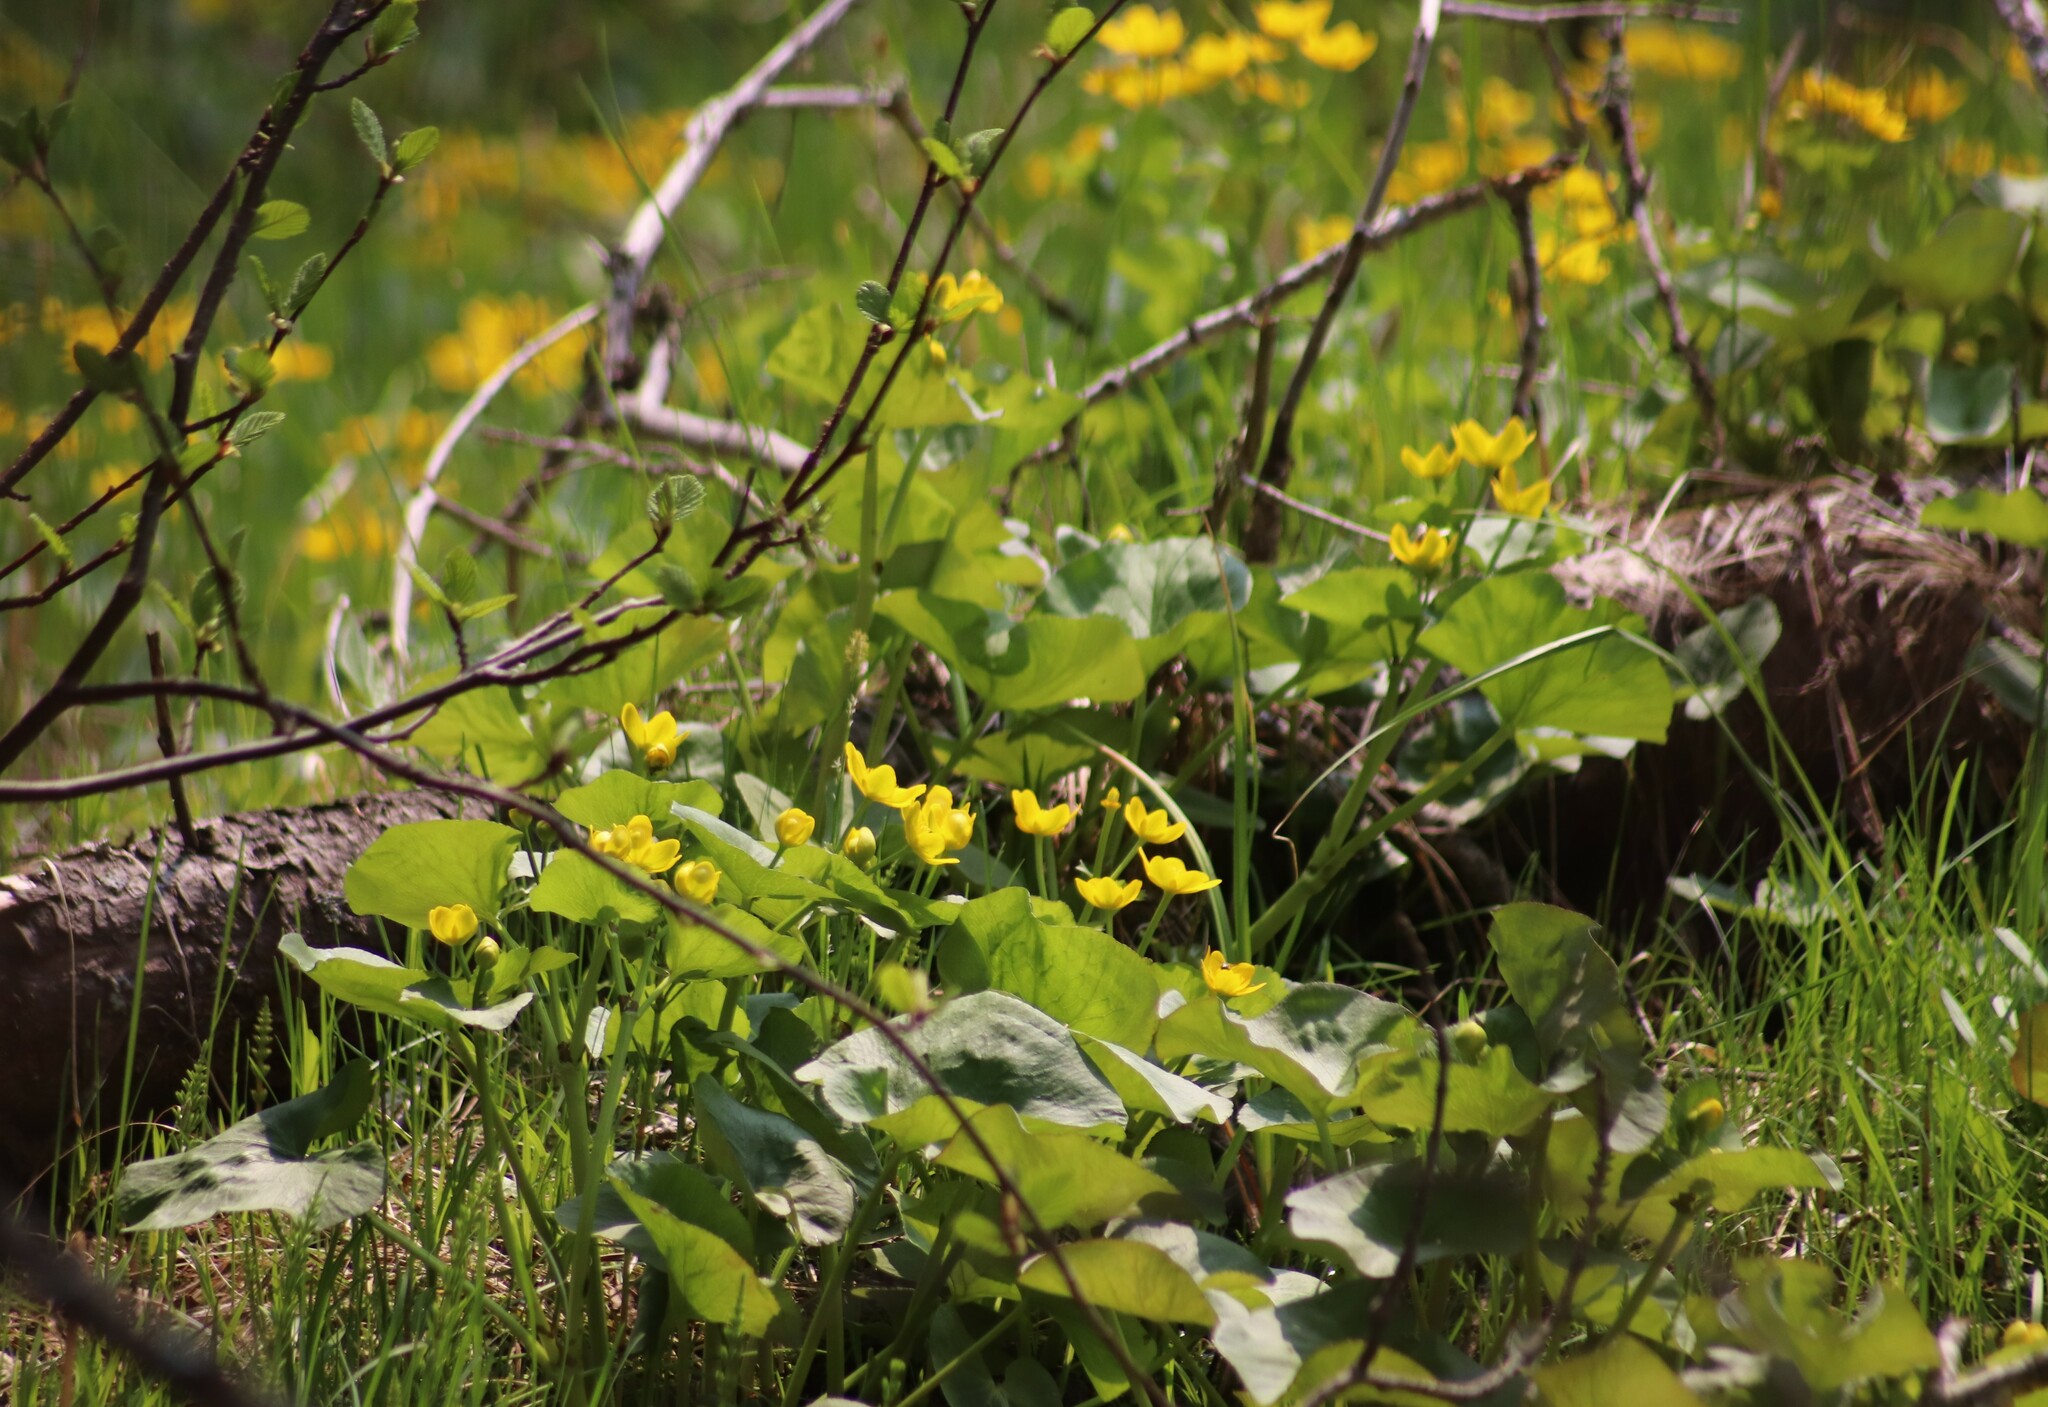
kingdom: Plantae
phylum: Tracheophyta
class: Magnoliopsida
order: Ranunculales
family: Ranunculaceae
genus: Caltha
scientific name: Caltha palustris
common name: Marsh marigold
